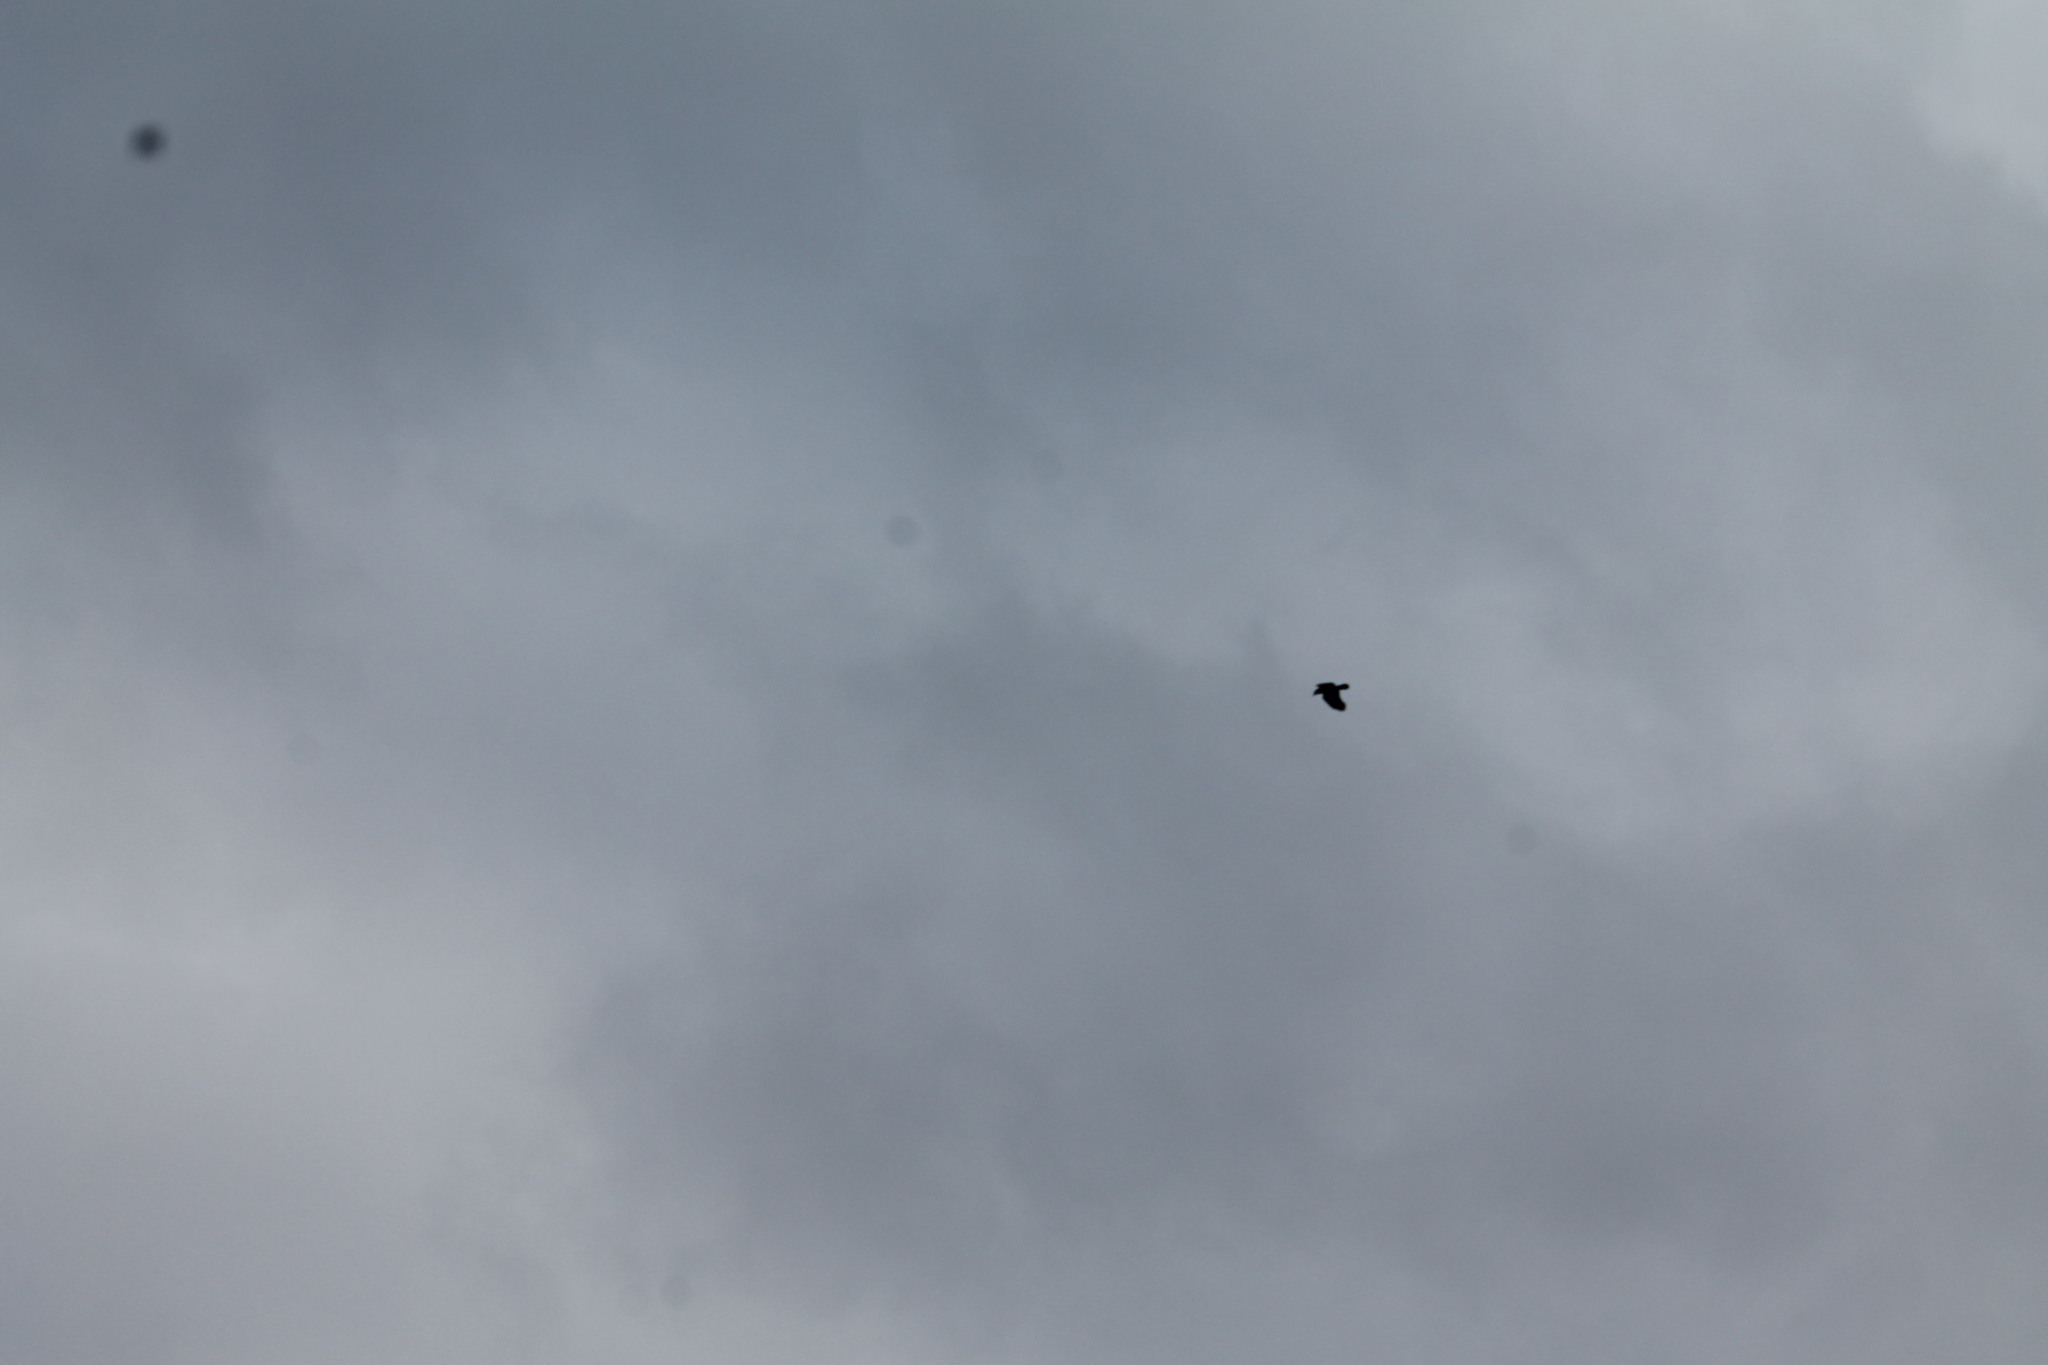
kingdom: Animalia
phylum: Chordata
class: Aves
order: Passeriformes
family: Corvidae
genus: Corvus
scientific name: Corvus brachyrhynchos
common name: American crow
